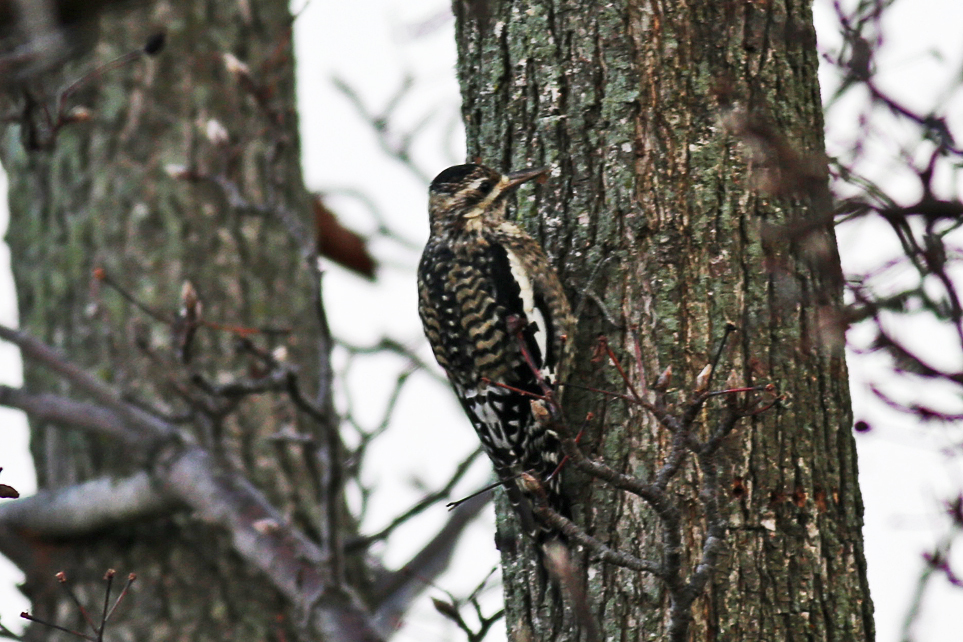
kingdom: Animalia
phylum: Chordata
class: Aves
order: Piciformes
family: Picidae
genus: Sphyrapicus
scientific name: Sphyrapicus varius
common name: Yellow-bellied sapsucker
